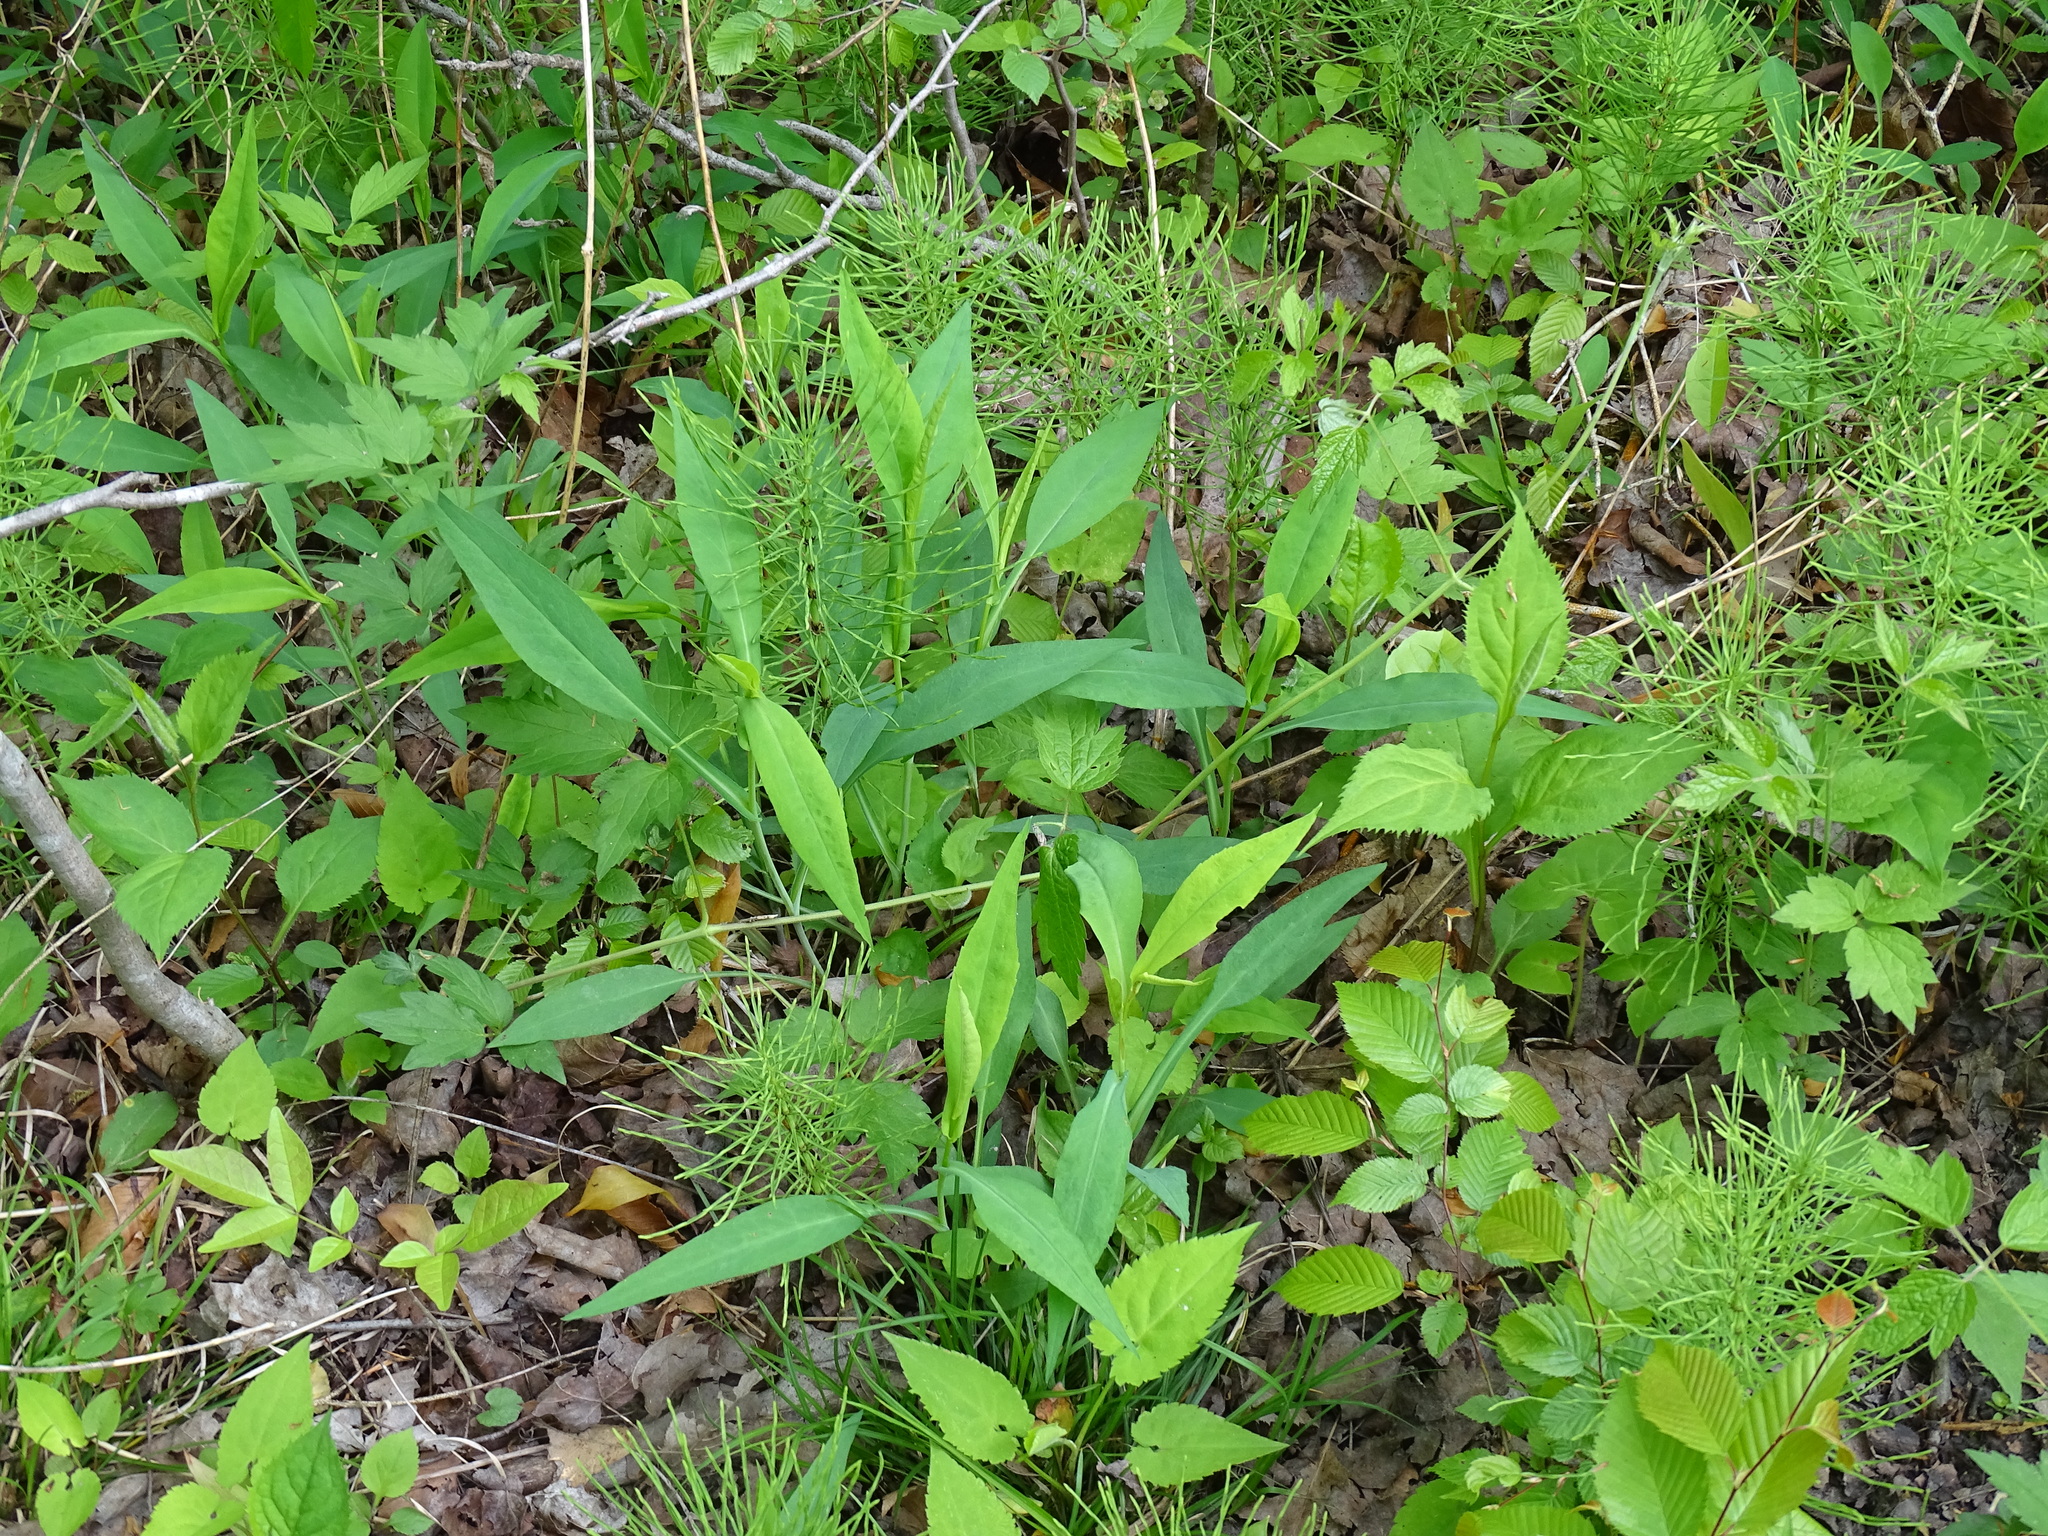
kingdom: Plantae
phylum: Tracheophyta
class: Magnoliopsida
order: Asterales
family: Asteraceae
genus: Symphyotrichum
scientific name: Symphyotrichum laeve
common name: Glaucous aster
